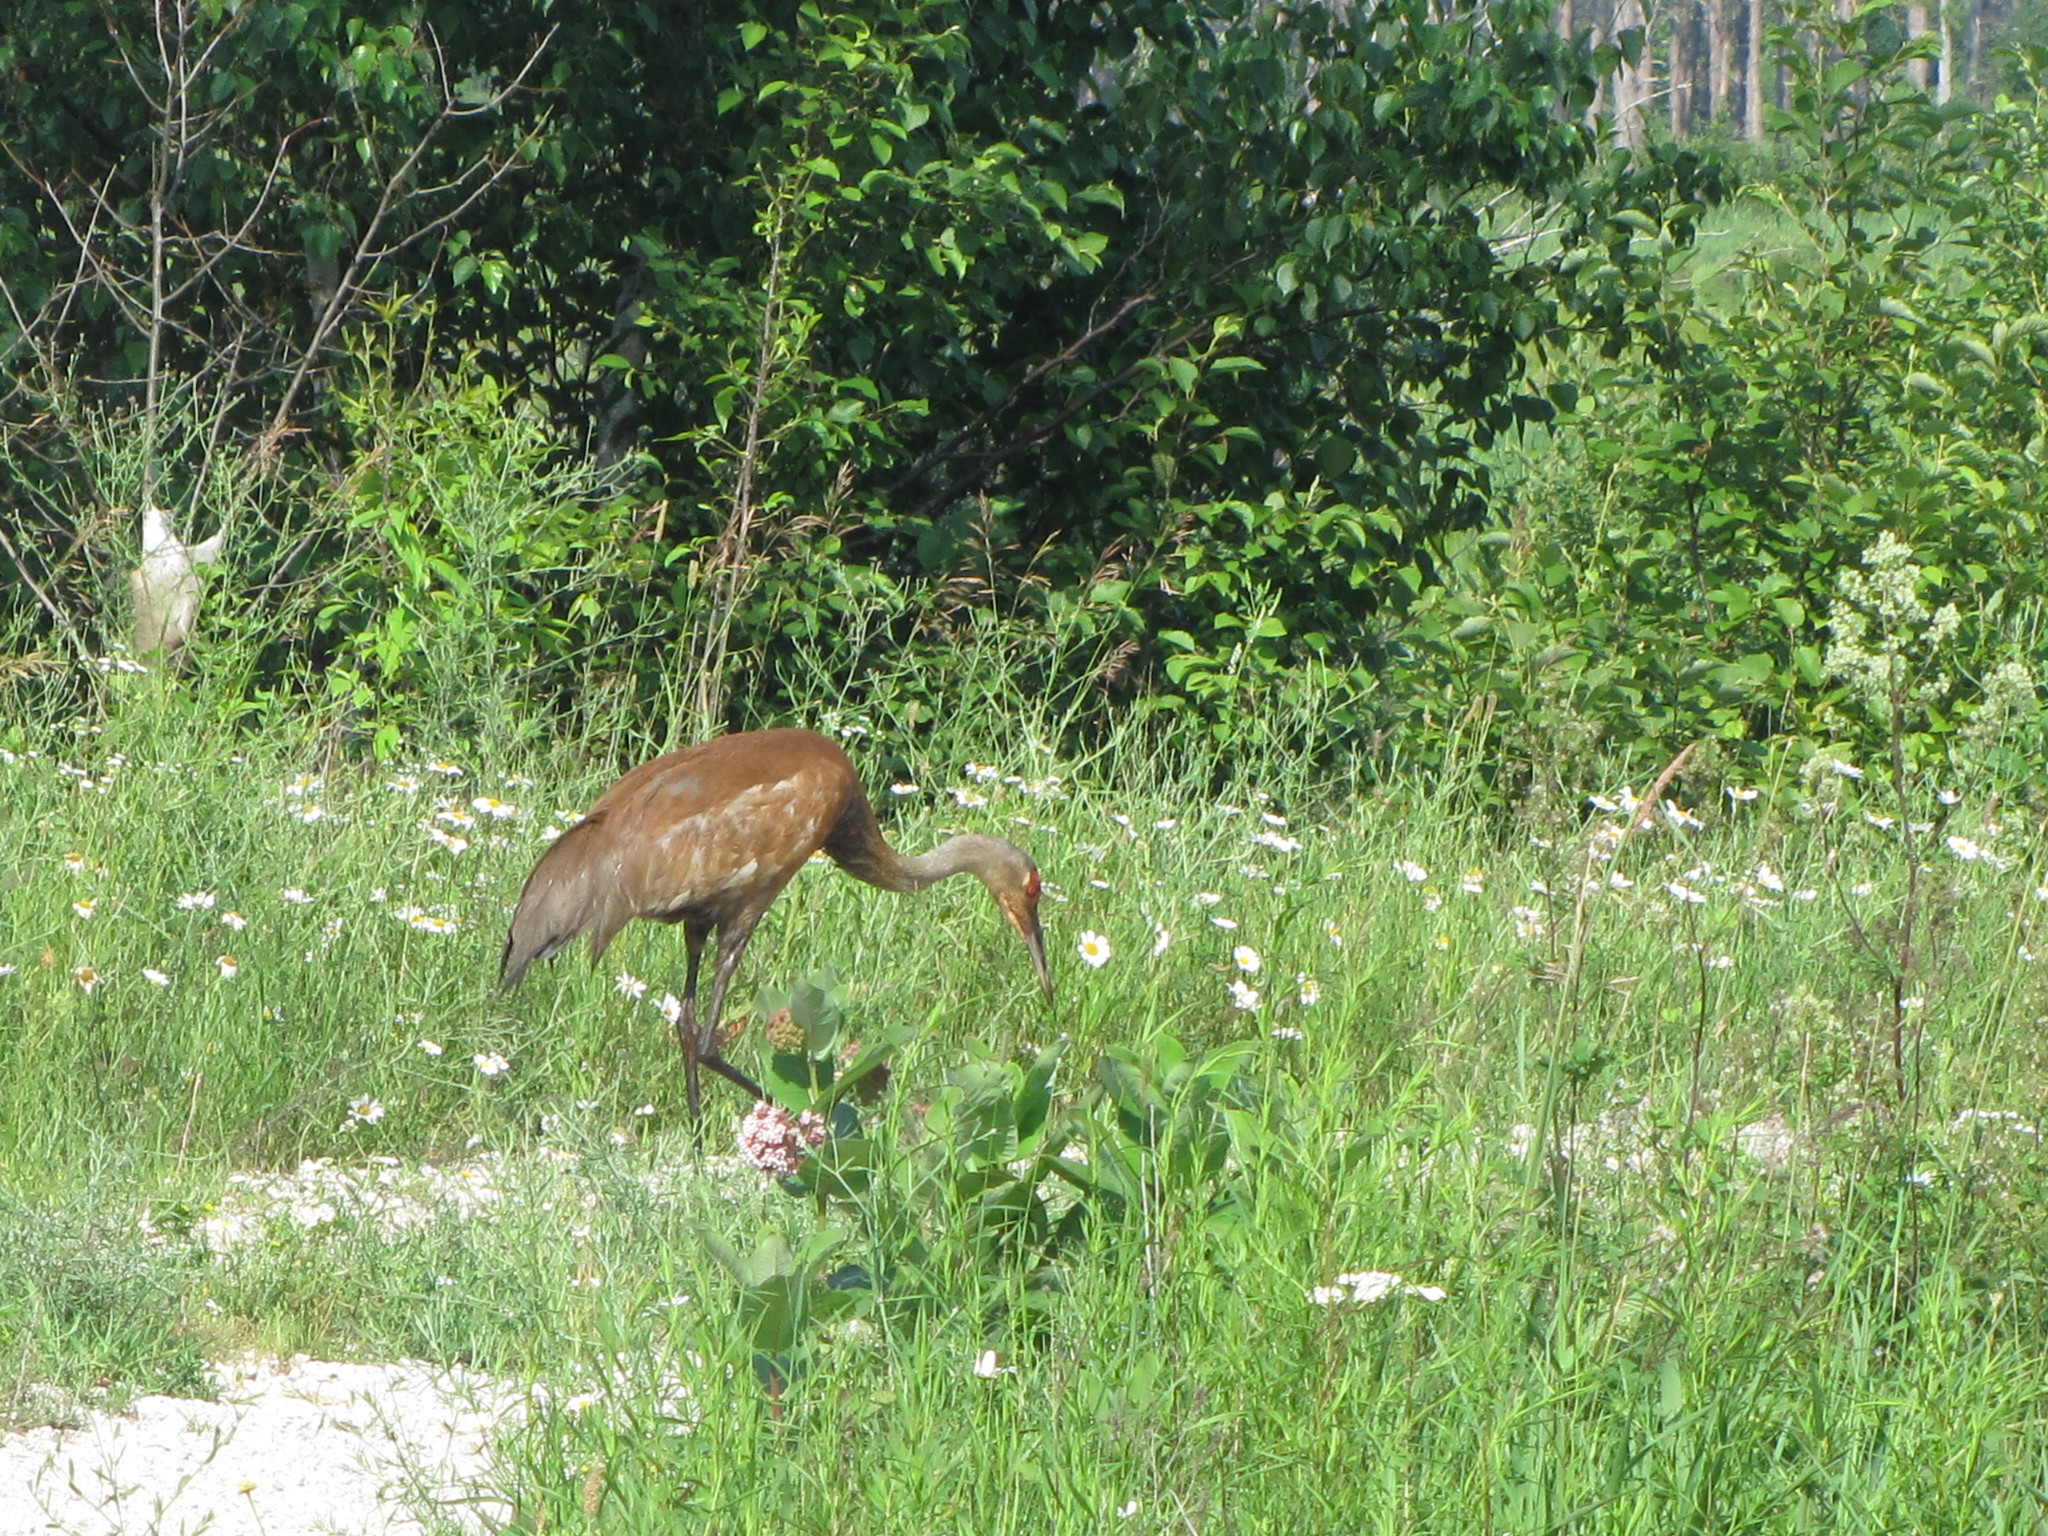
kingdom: Animalia
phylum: Chordata
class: Aves
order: Gruiformes
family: Gruidae
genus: Grus
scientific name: Grus canadensis
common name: Sandhill crane
